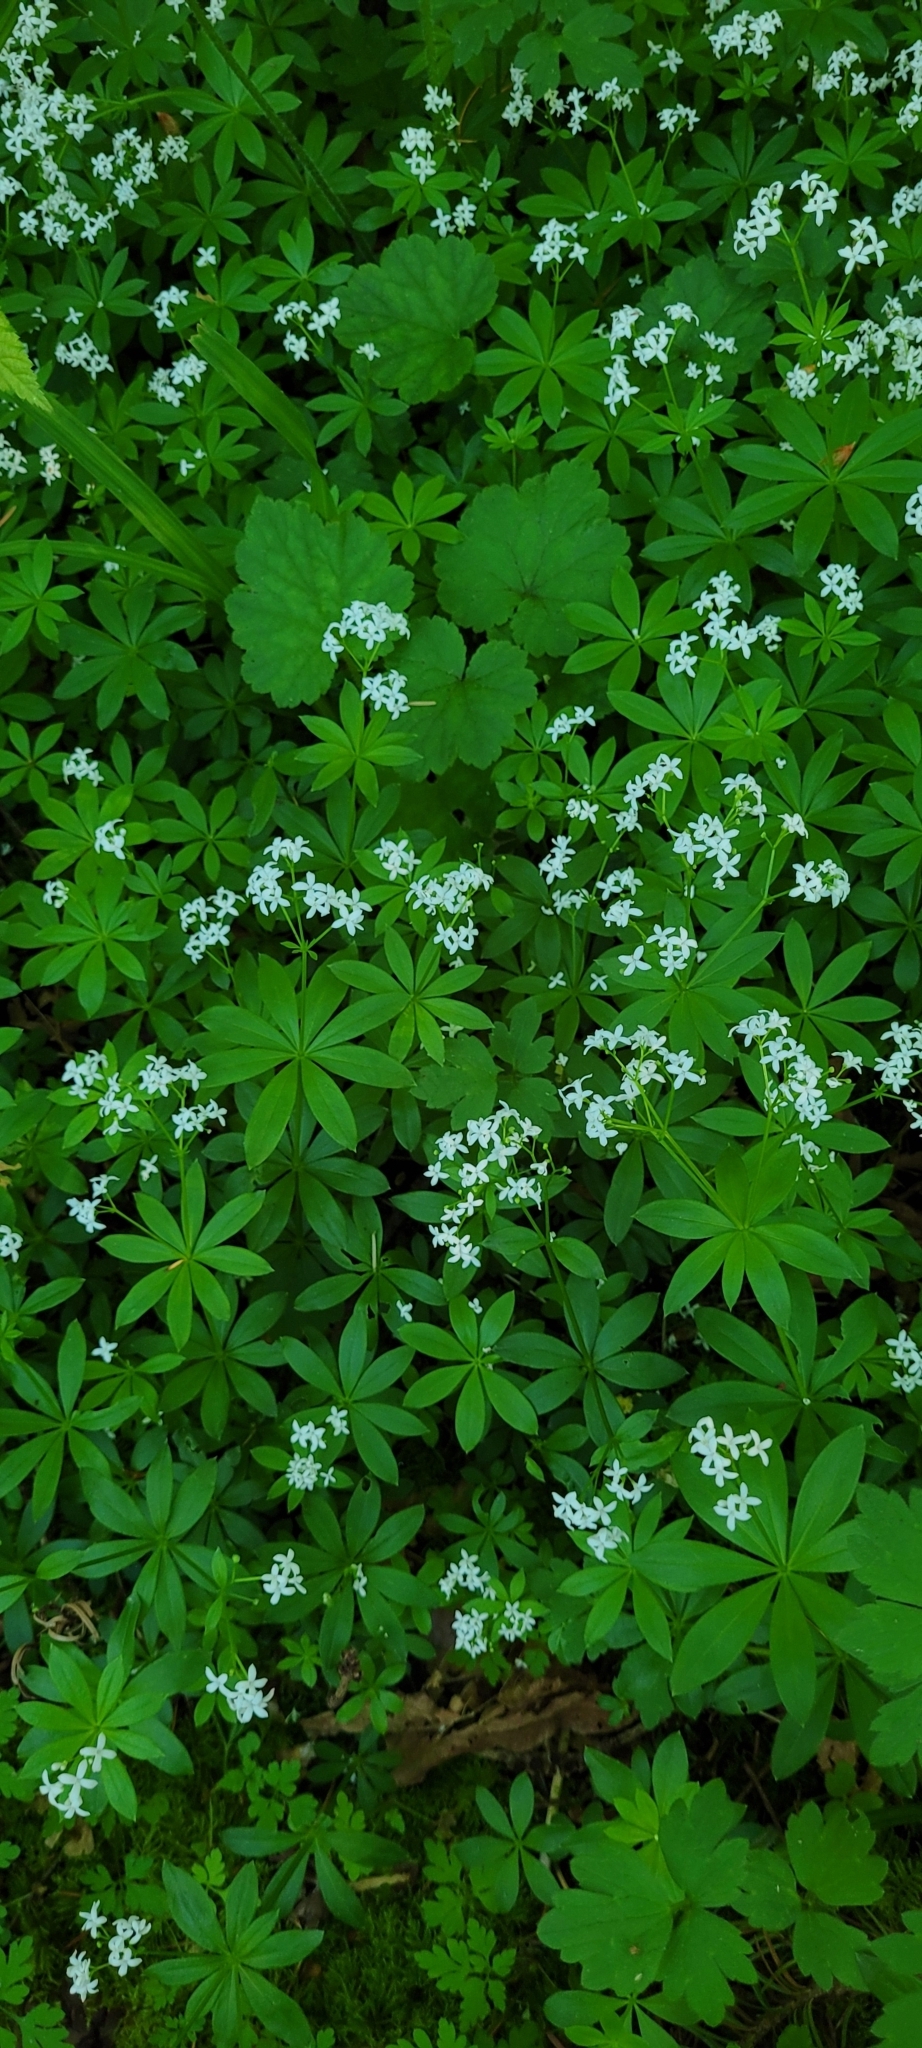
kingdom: Plantae
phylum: Tracheophyta
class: Magnoliopsida
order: Gentianales
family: Rubiaceae
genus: Galium
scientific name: Galium odoratum
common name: Sweet woodruff
